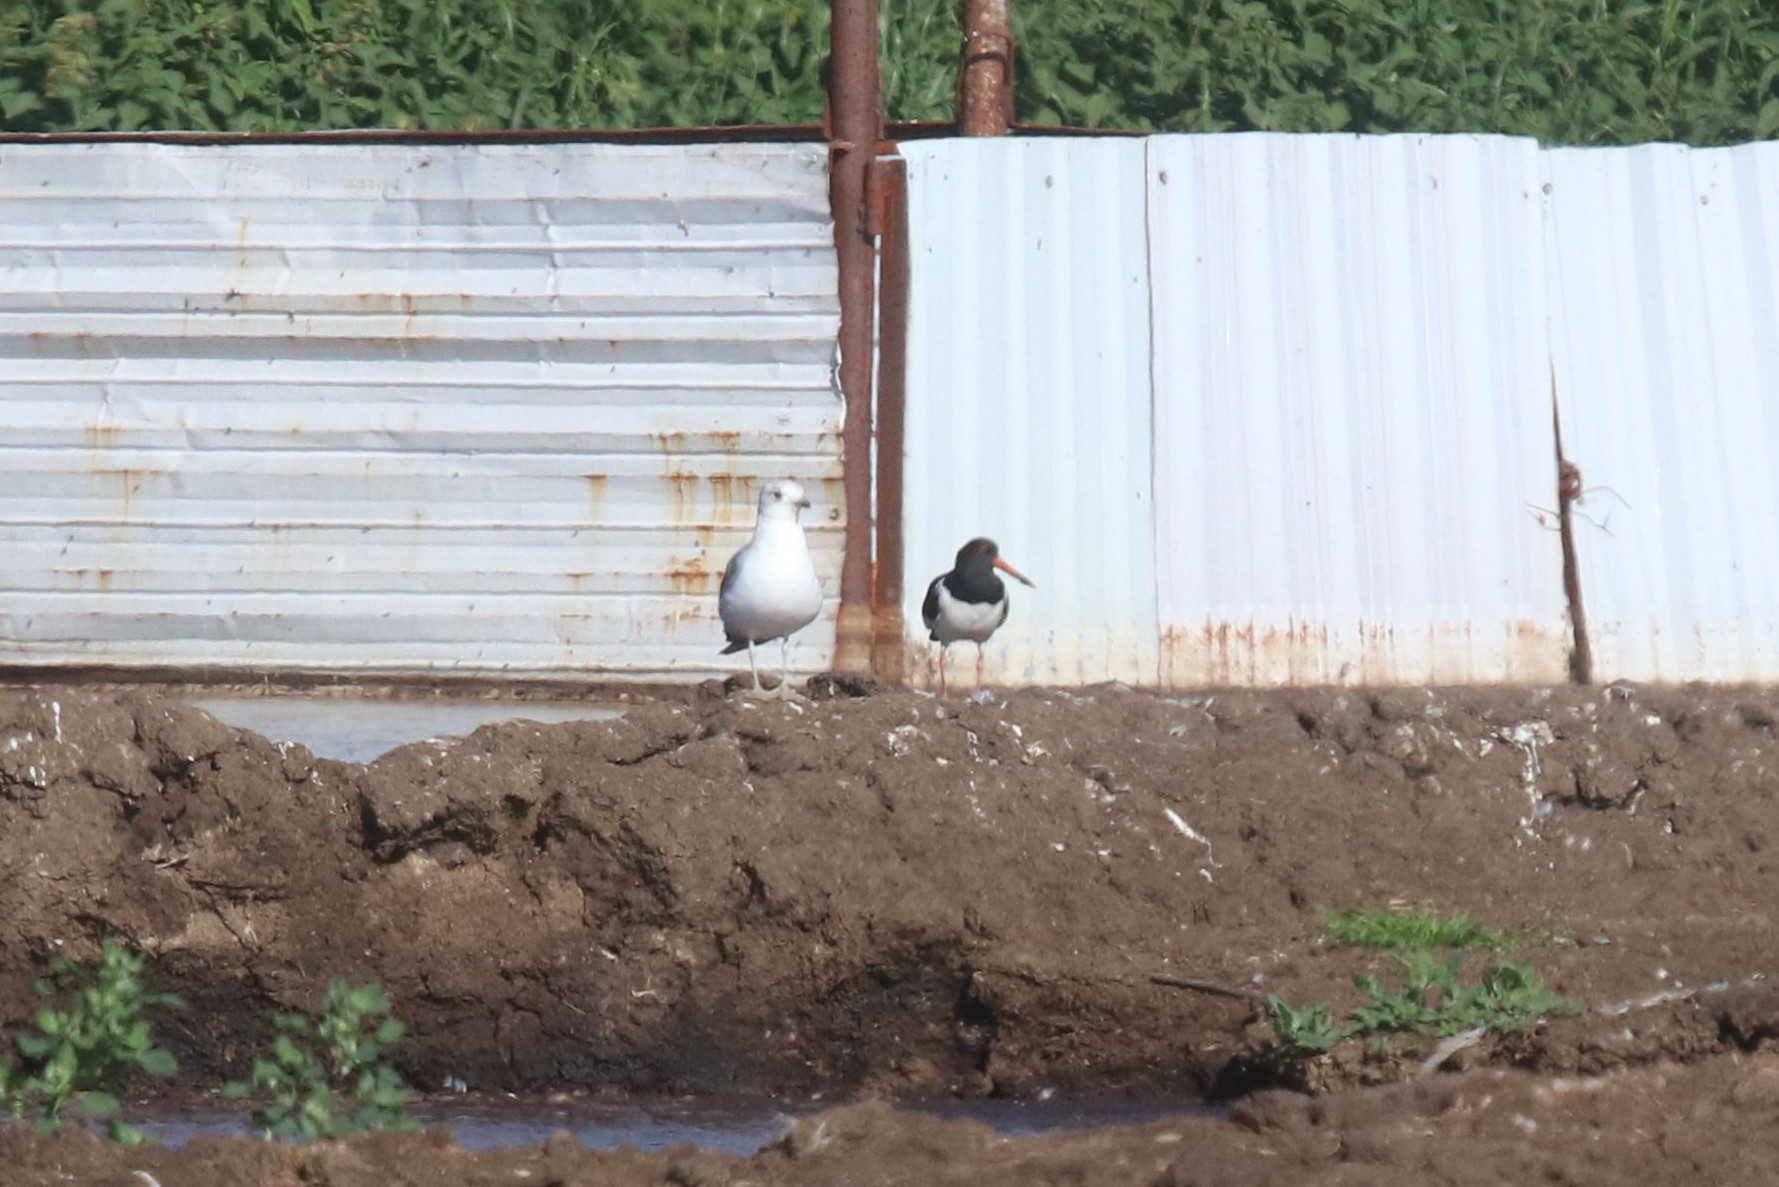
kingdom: Animalia
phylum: Chordata
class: Aves
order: Charadriiformes
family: Laridae
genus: Larus
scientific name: Larus canus
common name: Mew gull
